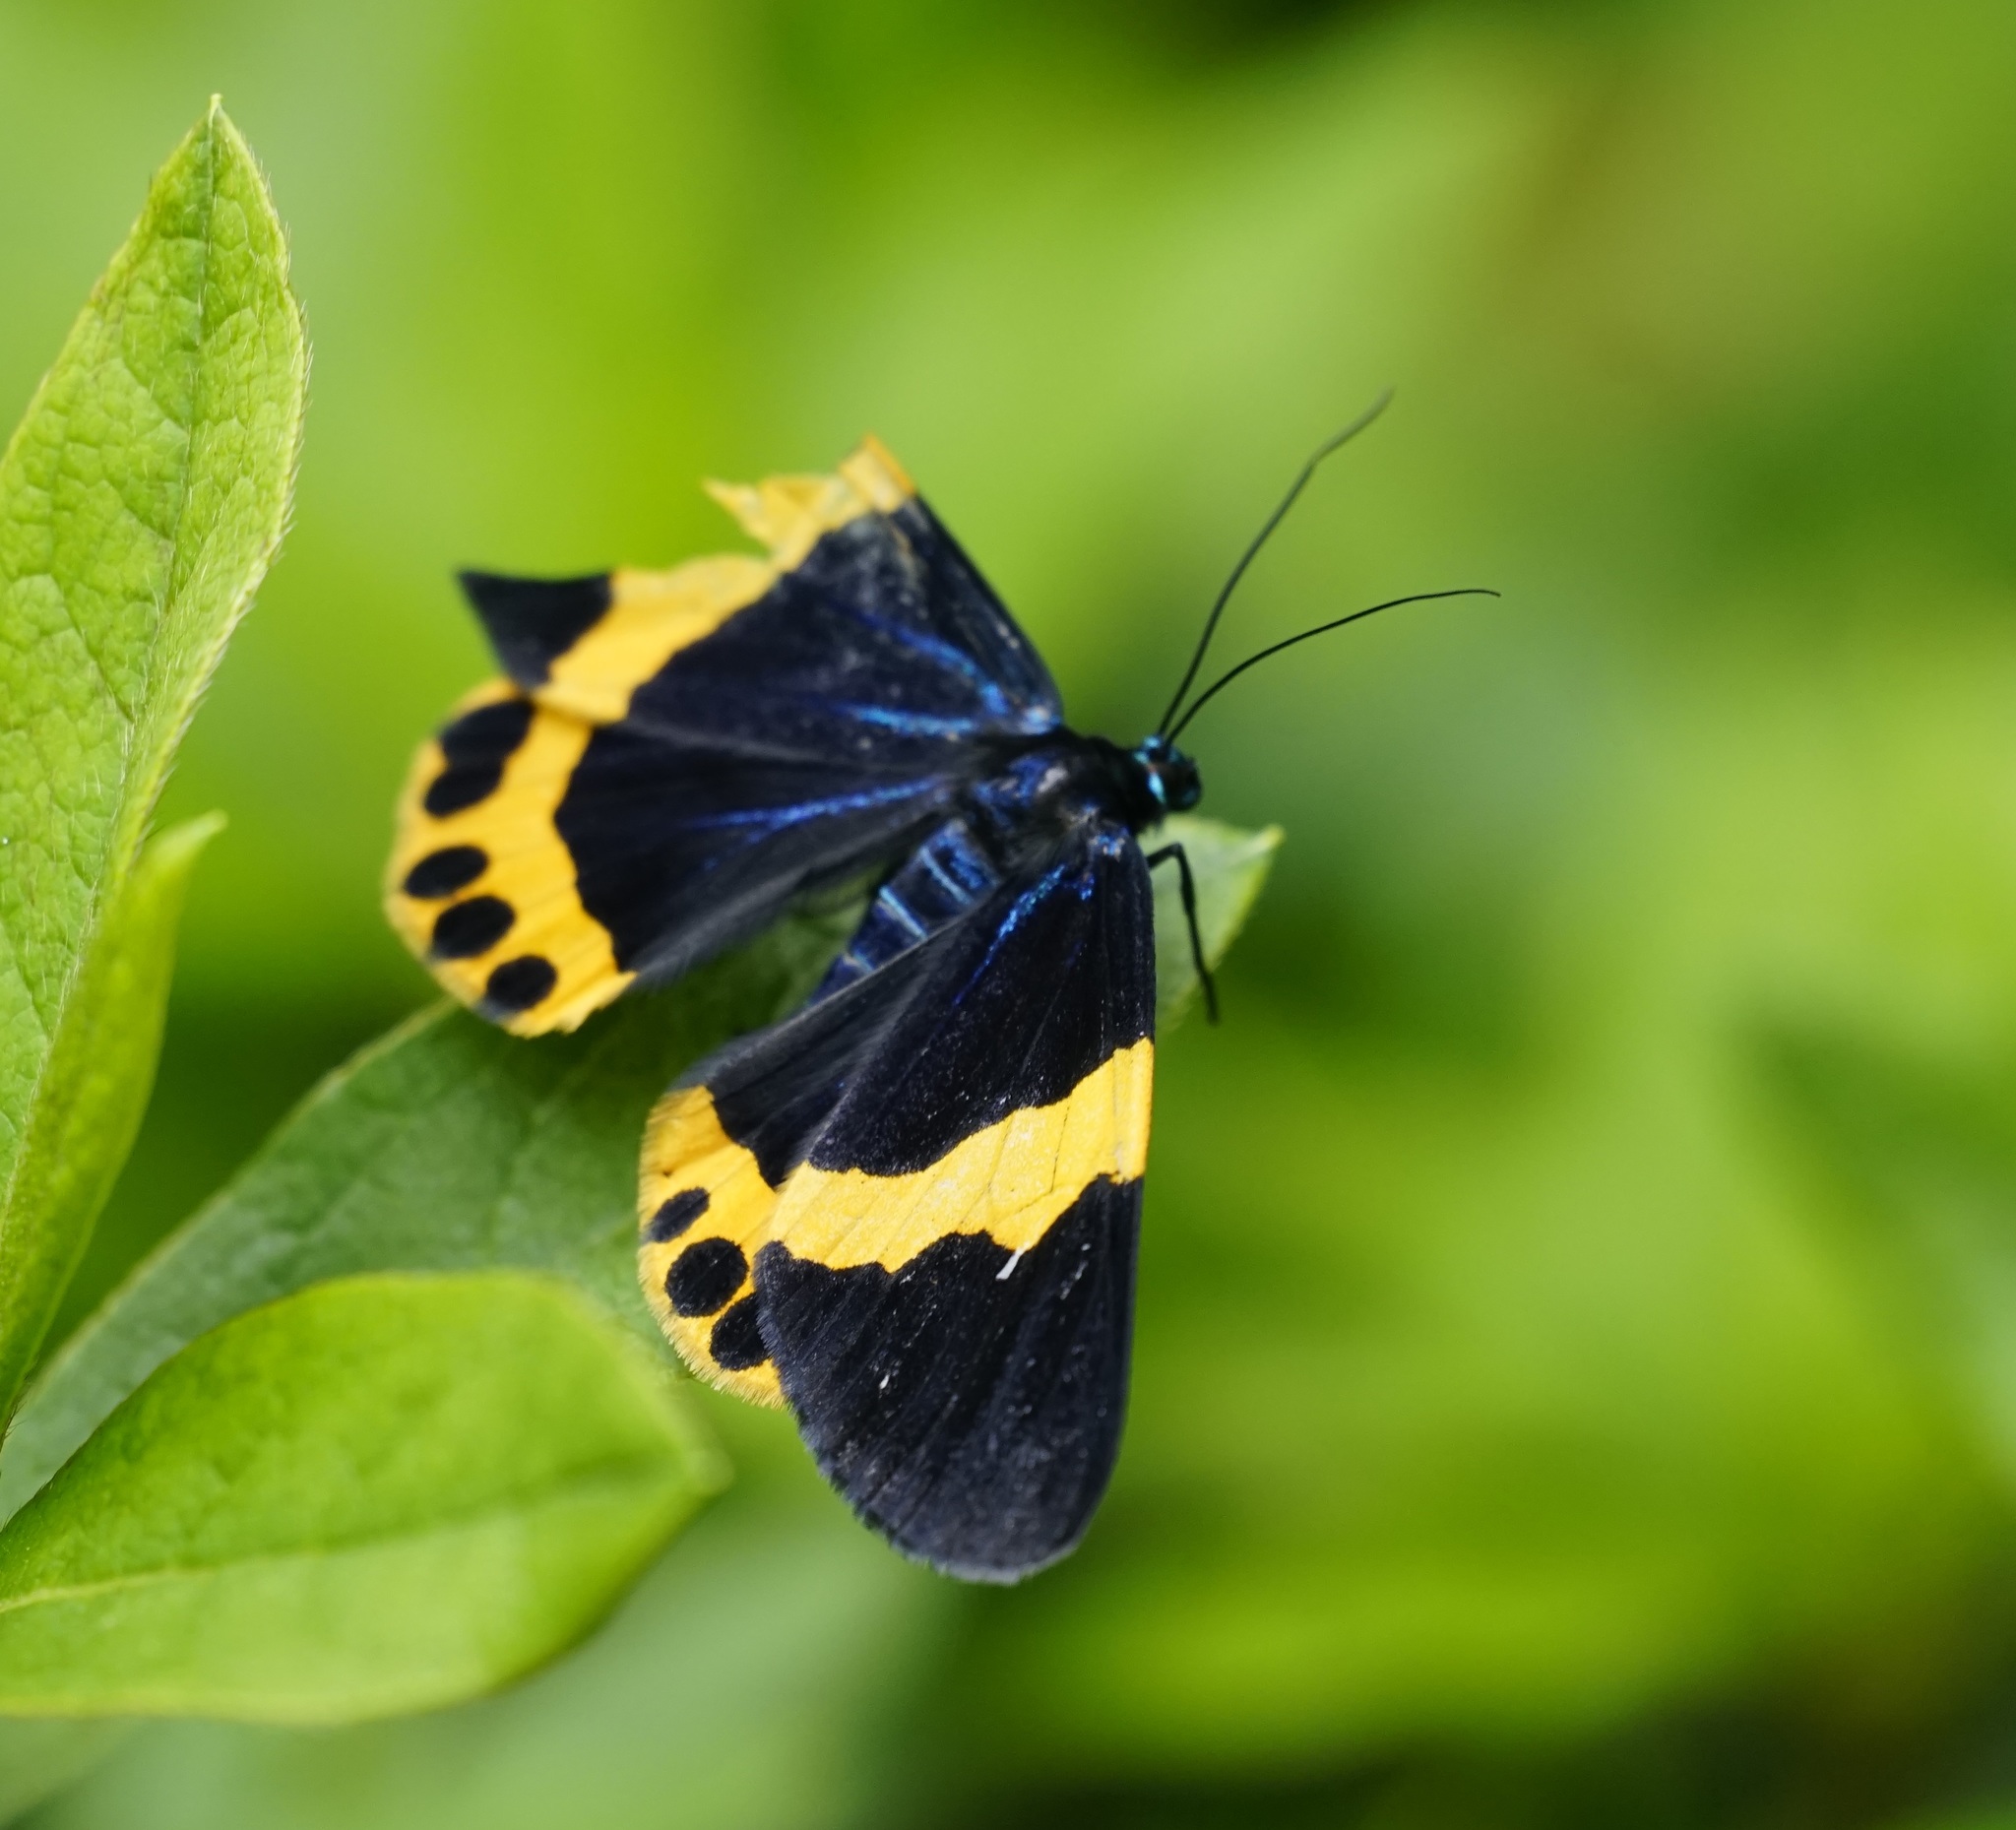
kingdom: Animalia
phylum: Arthropoda
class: Insecta
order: Lepidoptera
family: Geometridae
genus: Milionia
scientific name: Milionia basalis
